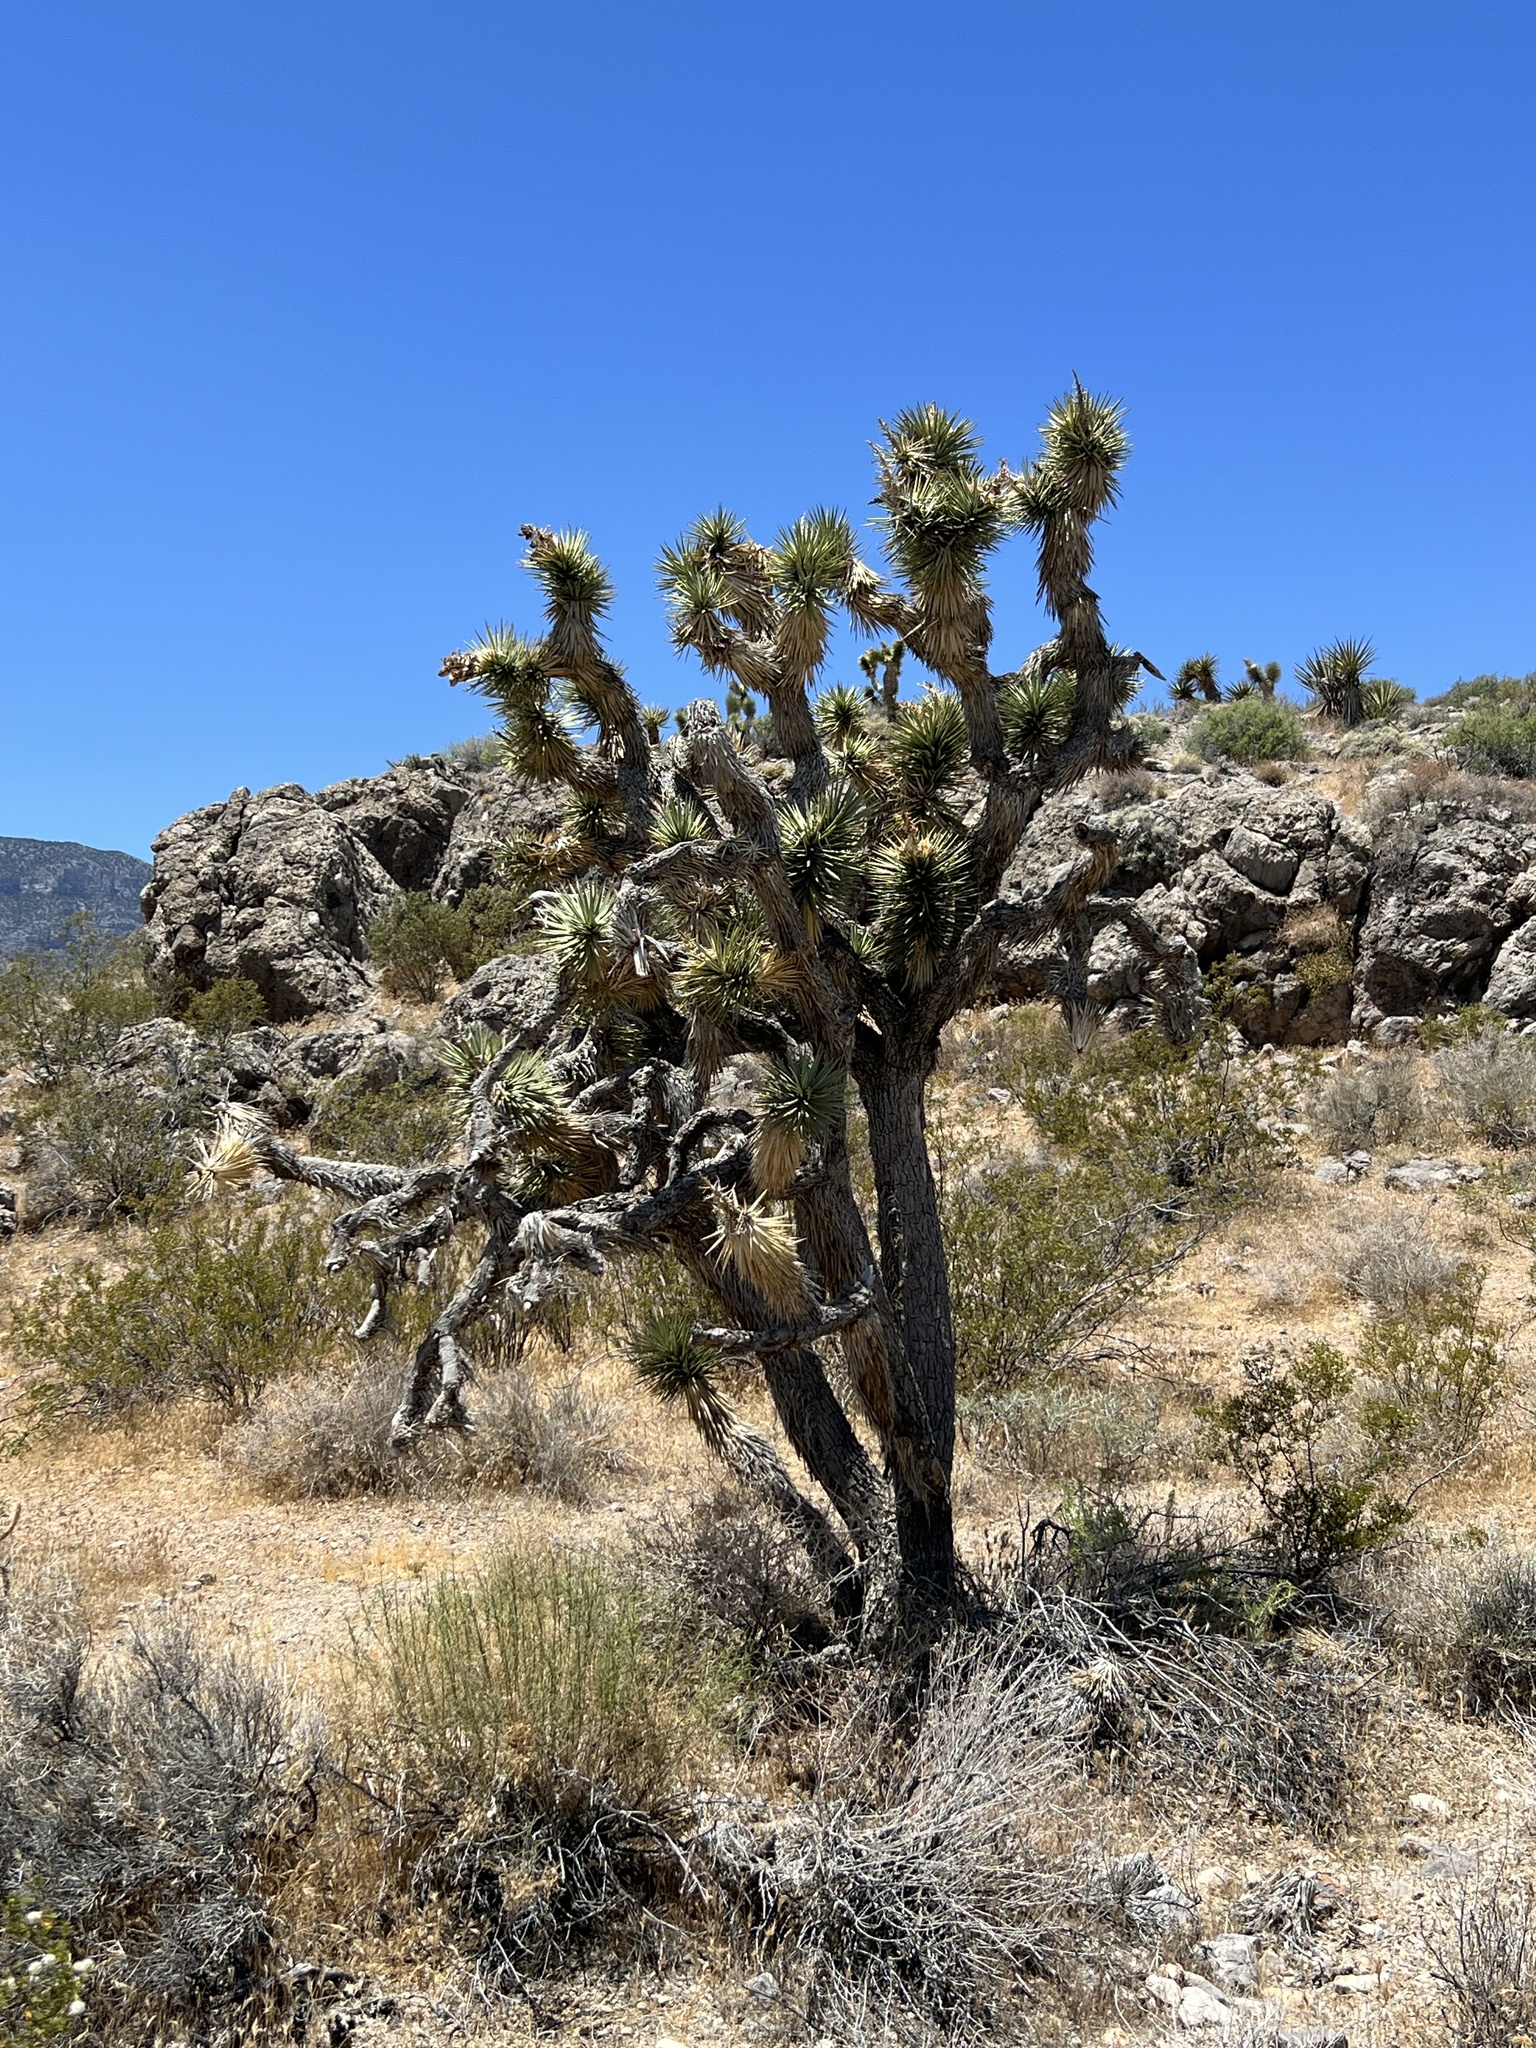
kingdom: Plantae
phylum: Tracheophyta
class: Liliopsida
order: Asparagales
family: Asparagaceae
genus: Yucca
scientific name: Yucca brevifolia
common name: Joshua tree
